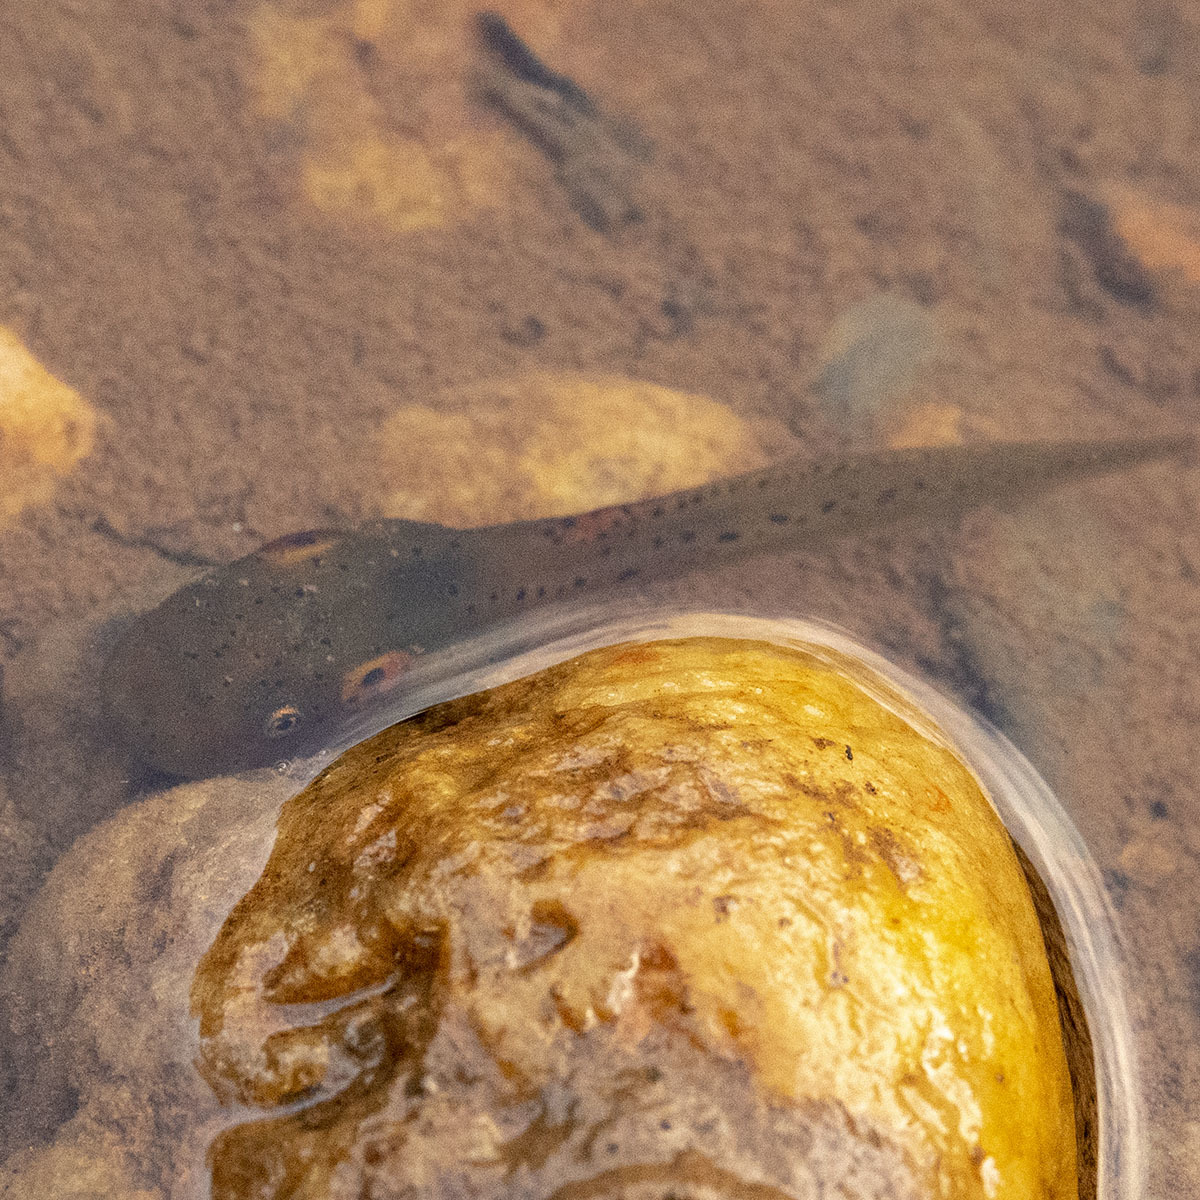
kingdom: Animalia
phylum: Chordata
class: Amphibia
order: Anura
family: Ranidae
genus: Clinotarsus
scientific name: Clinotarsus curtipes
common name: Bicoloured frog
